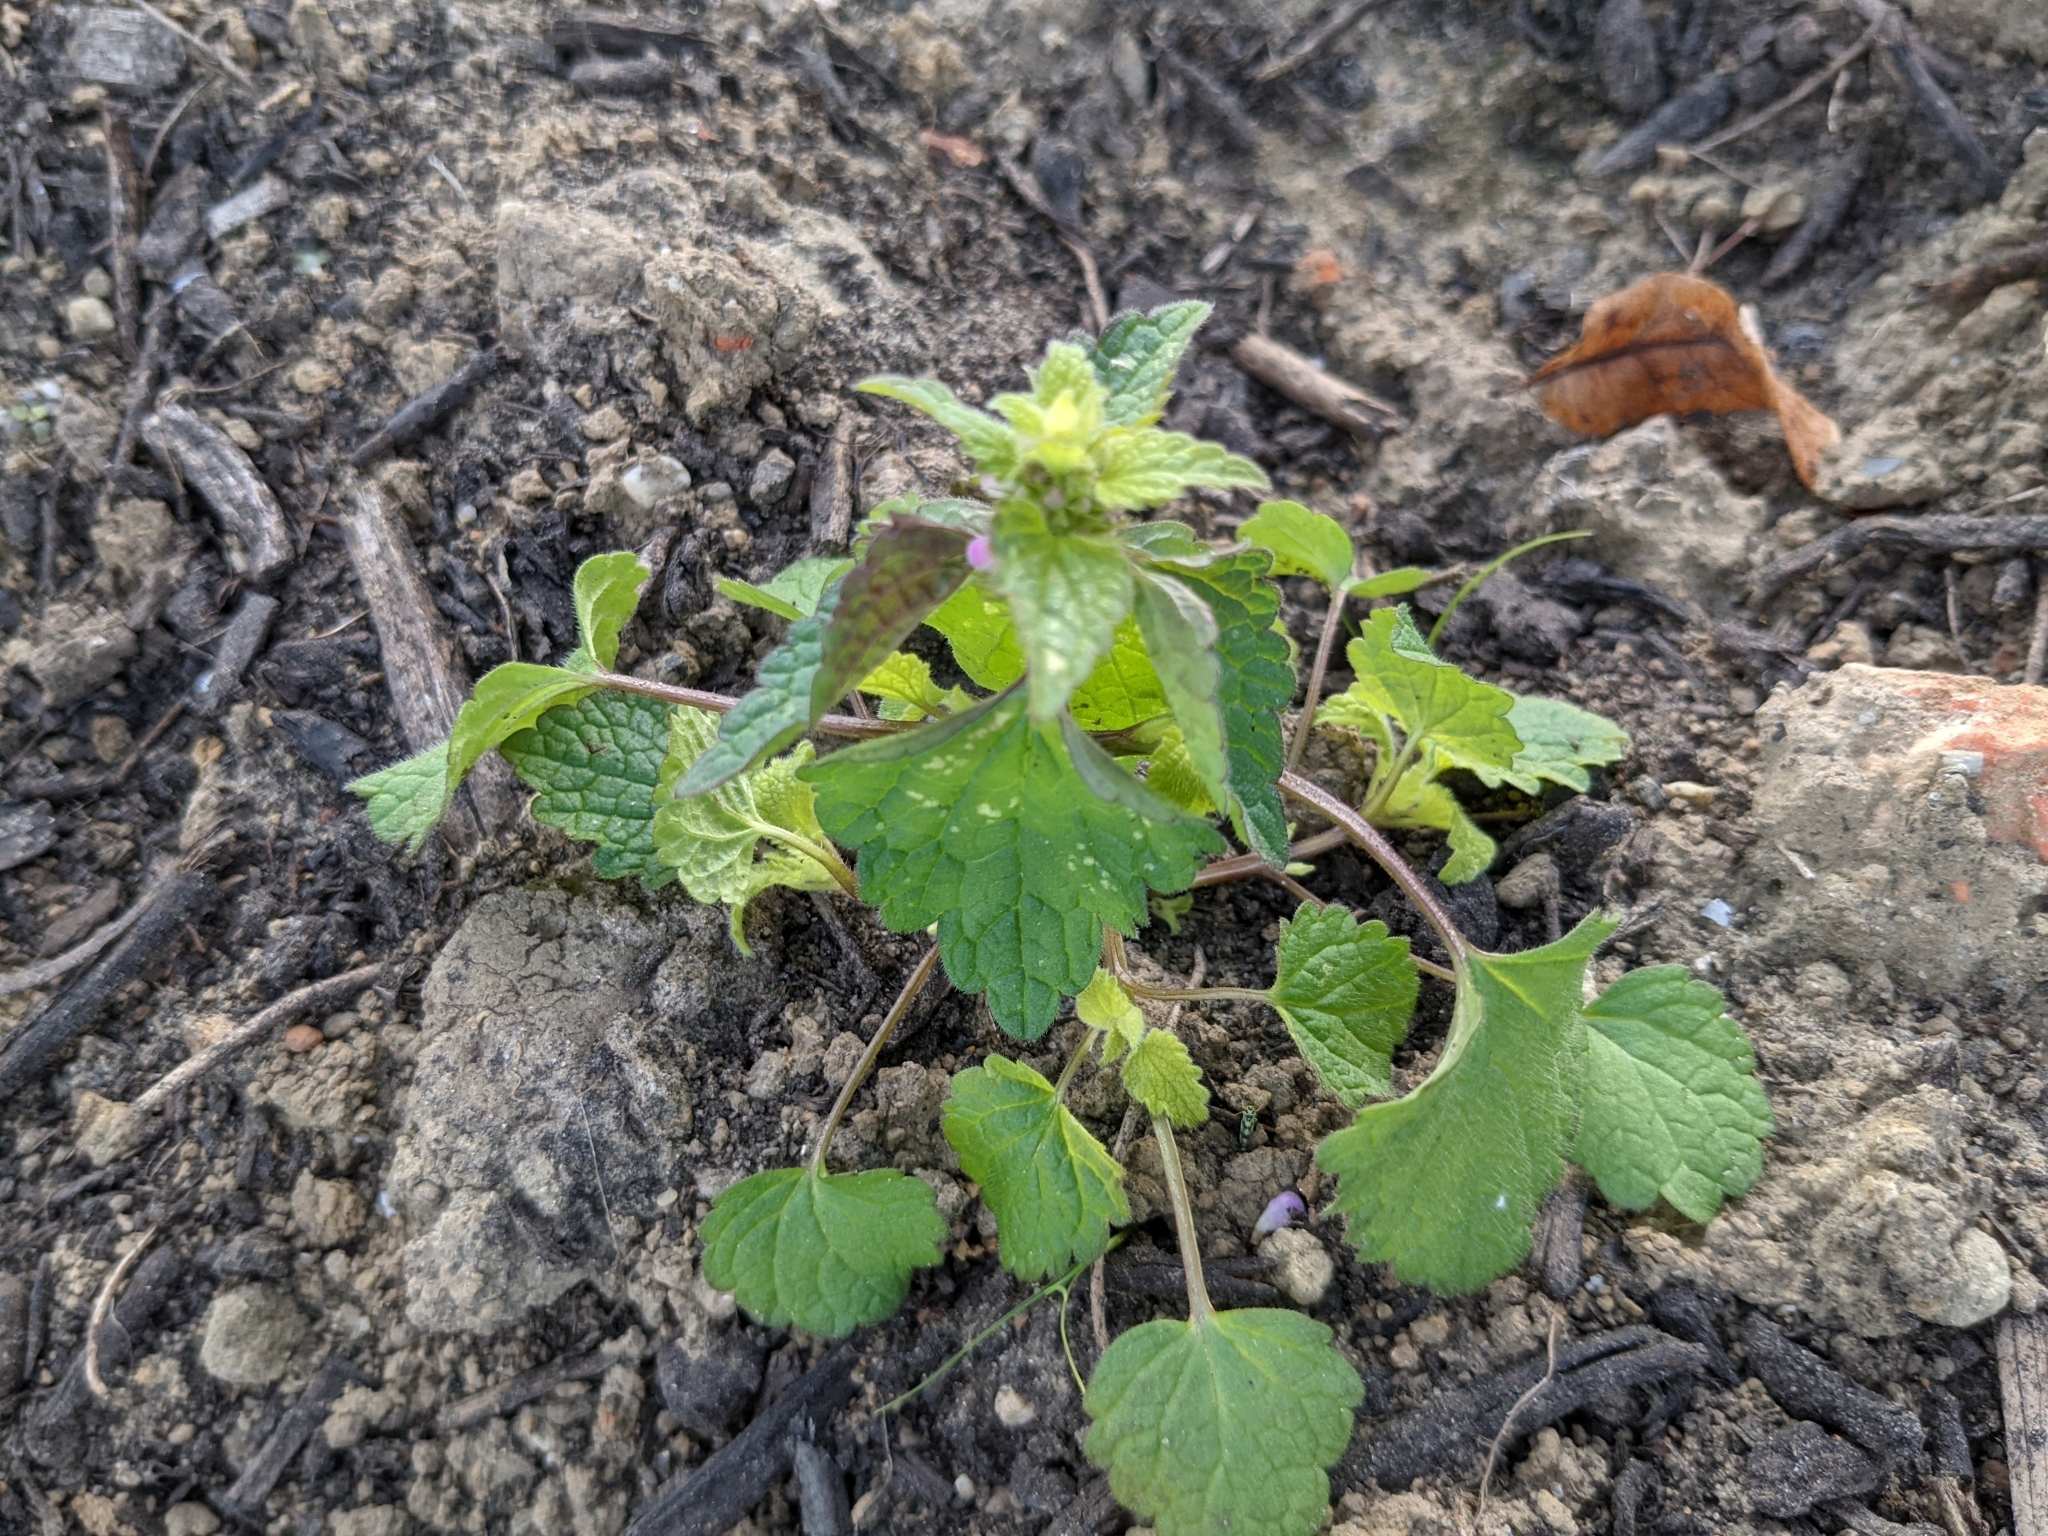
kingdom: Plantae
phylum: Tracheophyta
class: Magnoliopsida
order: Lamiales
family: Lamiaceae
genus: Lamium
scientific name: Lamium purpureum
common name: Red dead-nettle
